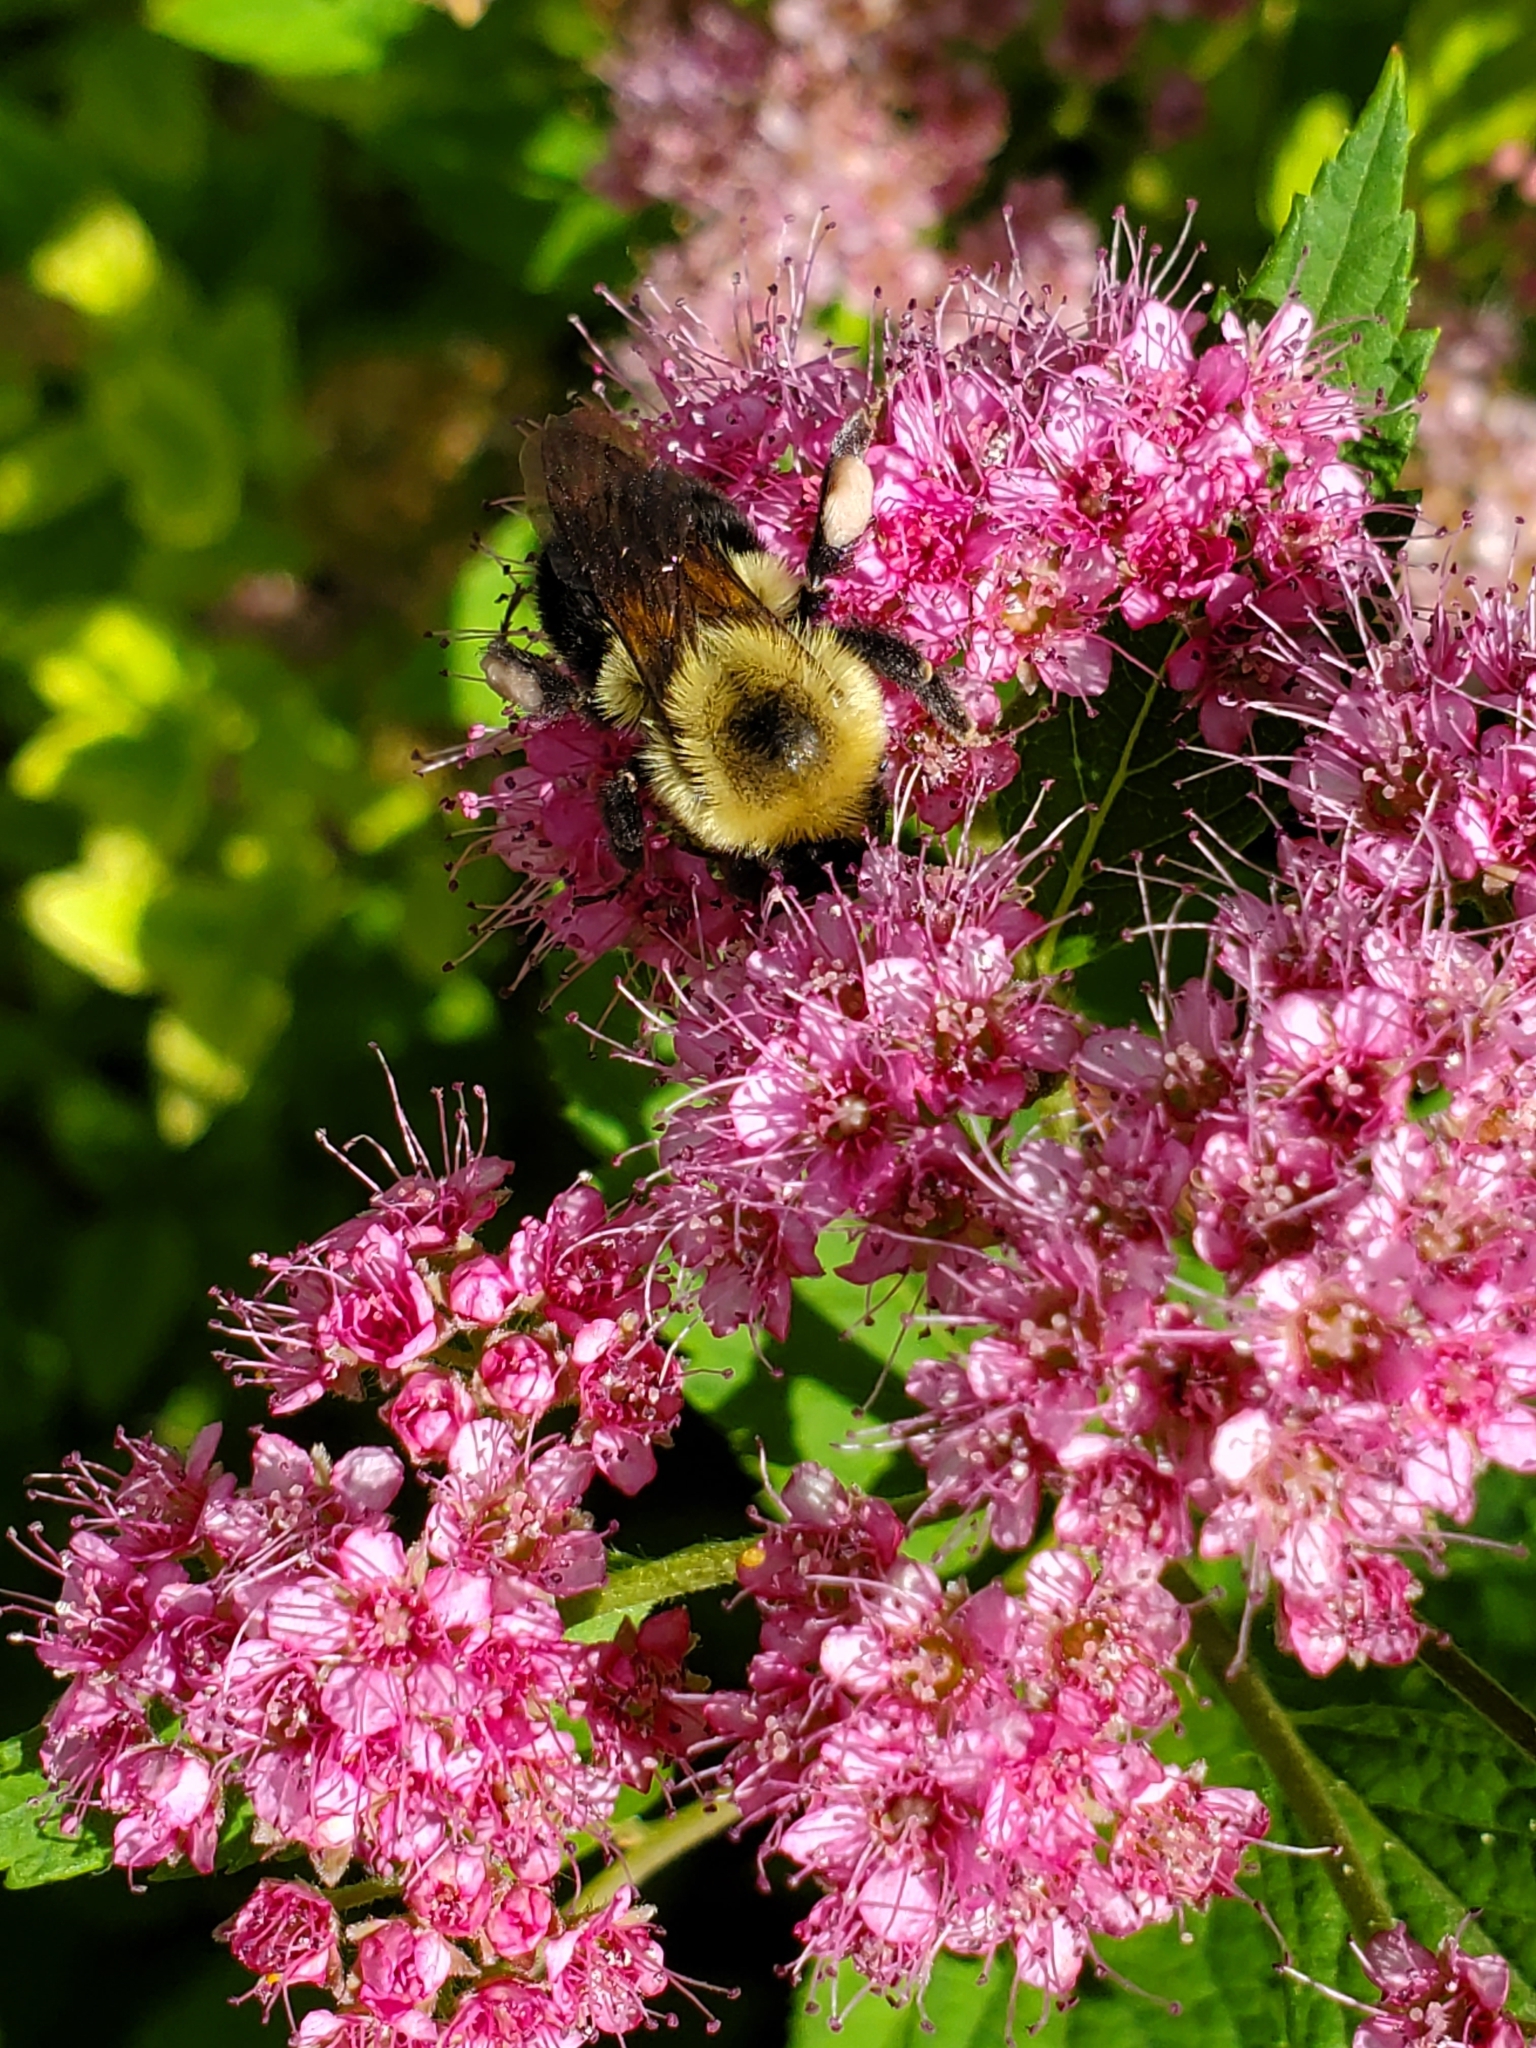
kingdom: Animalia
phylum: Arthropoda
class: Insecta
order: Hymenoptera
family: Apidae
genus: Bombus
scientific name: Bombus bimaculatus
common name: Two-spotted bumble bee
